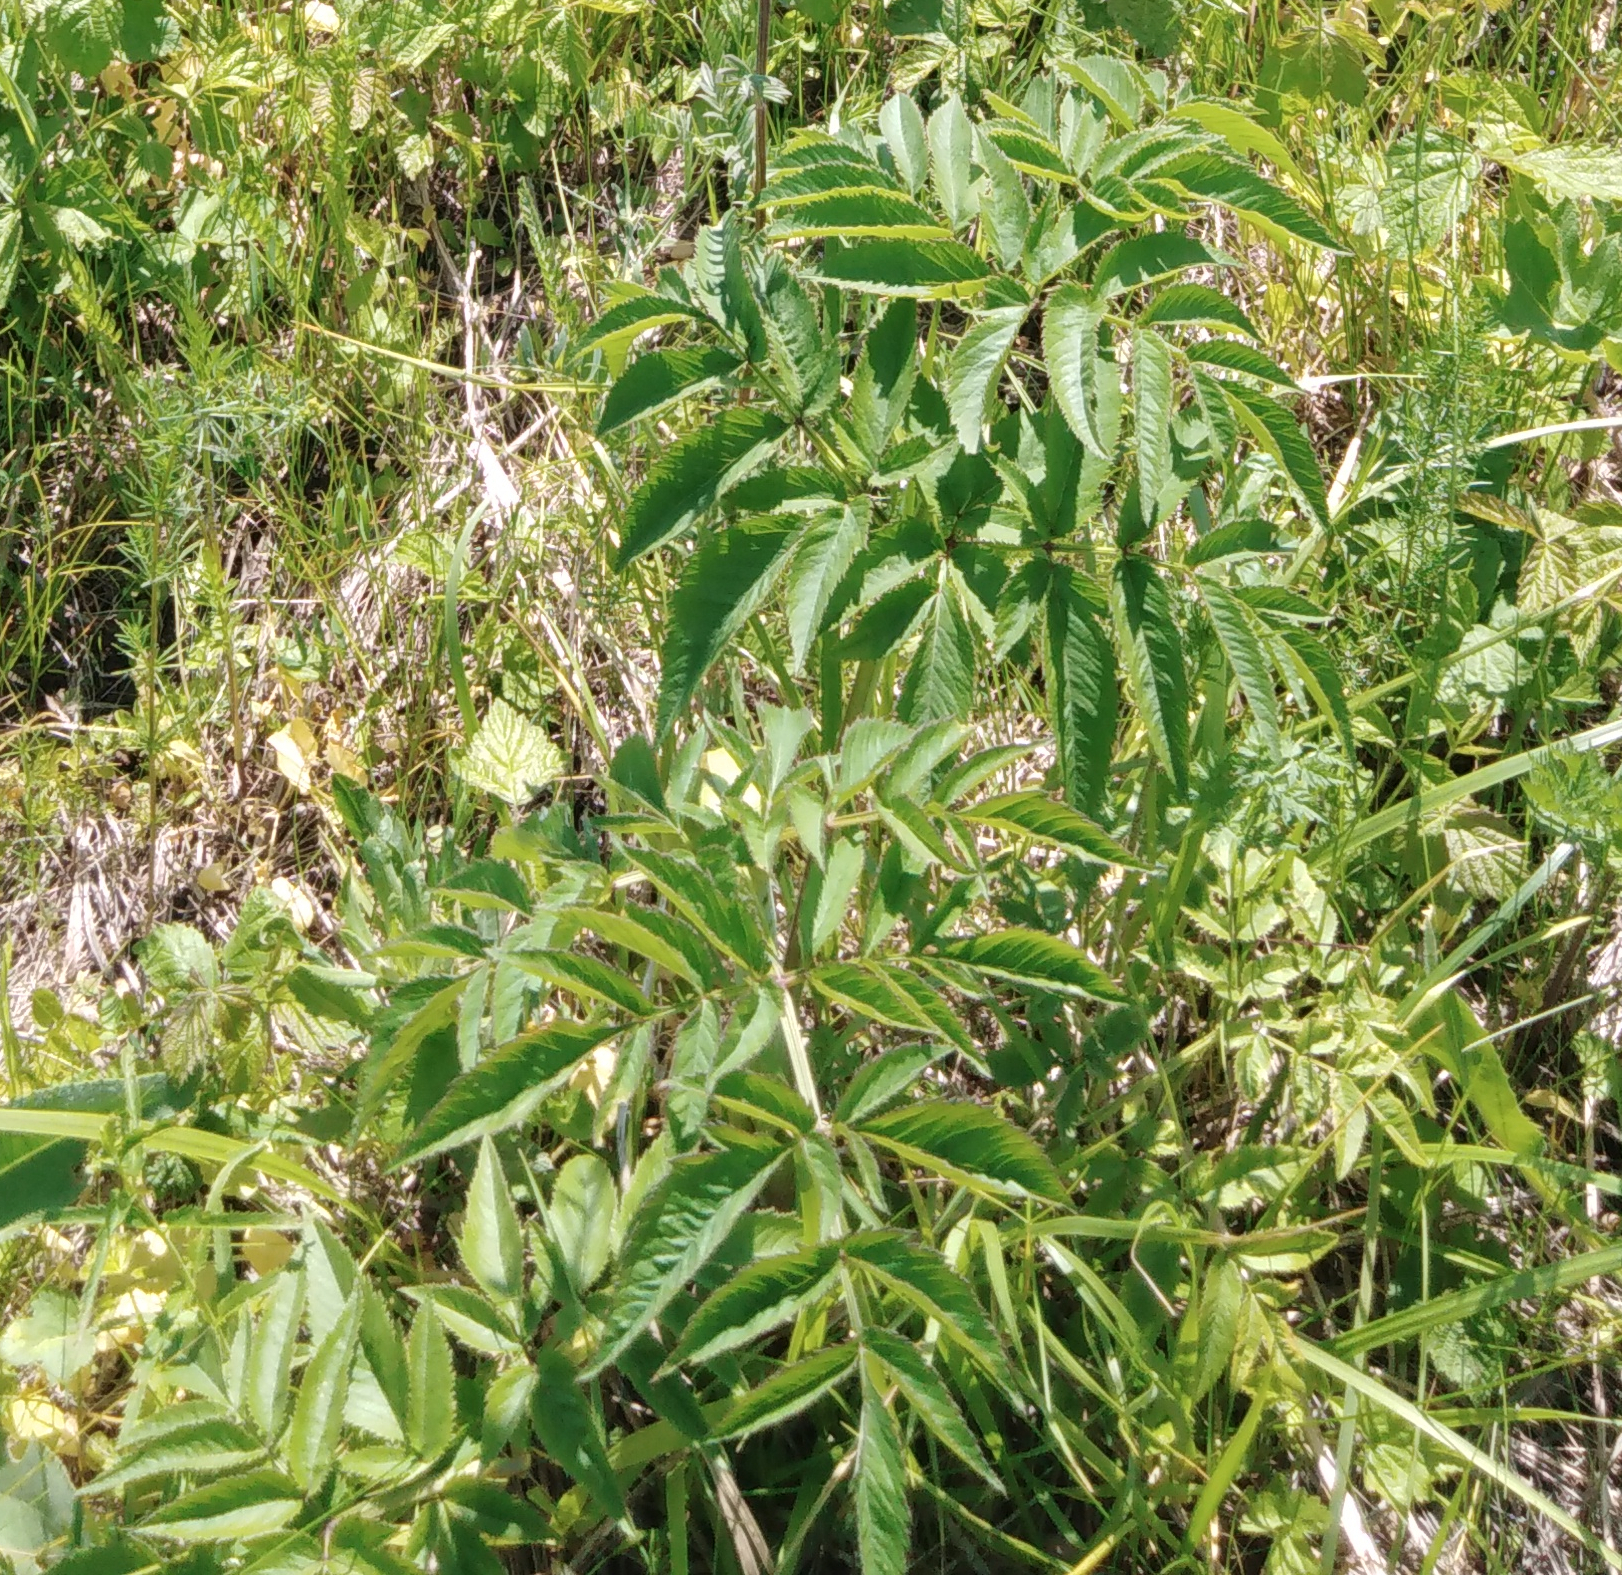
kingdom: Plantae
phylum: Tracheophyta
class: Magnoliopsida
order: Apiales
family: Apiaceae
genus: Angelica
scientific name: Angelica sylvestris
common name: Wild angelica
